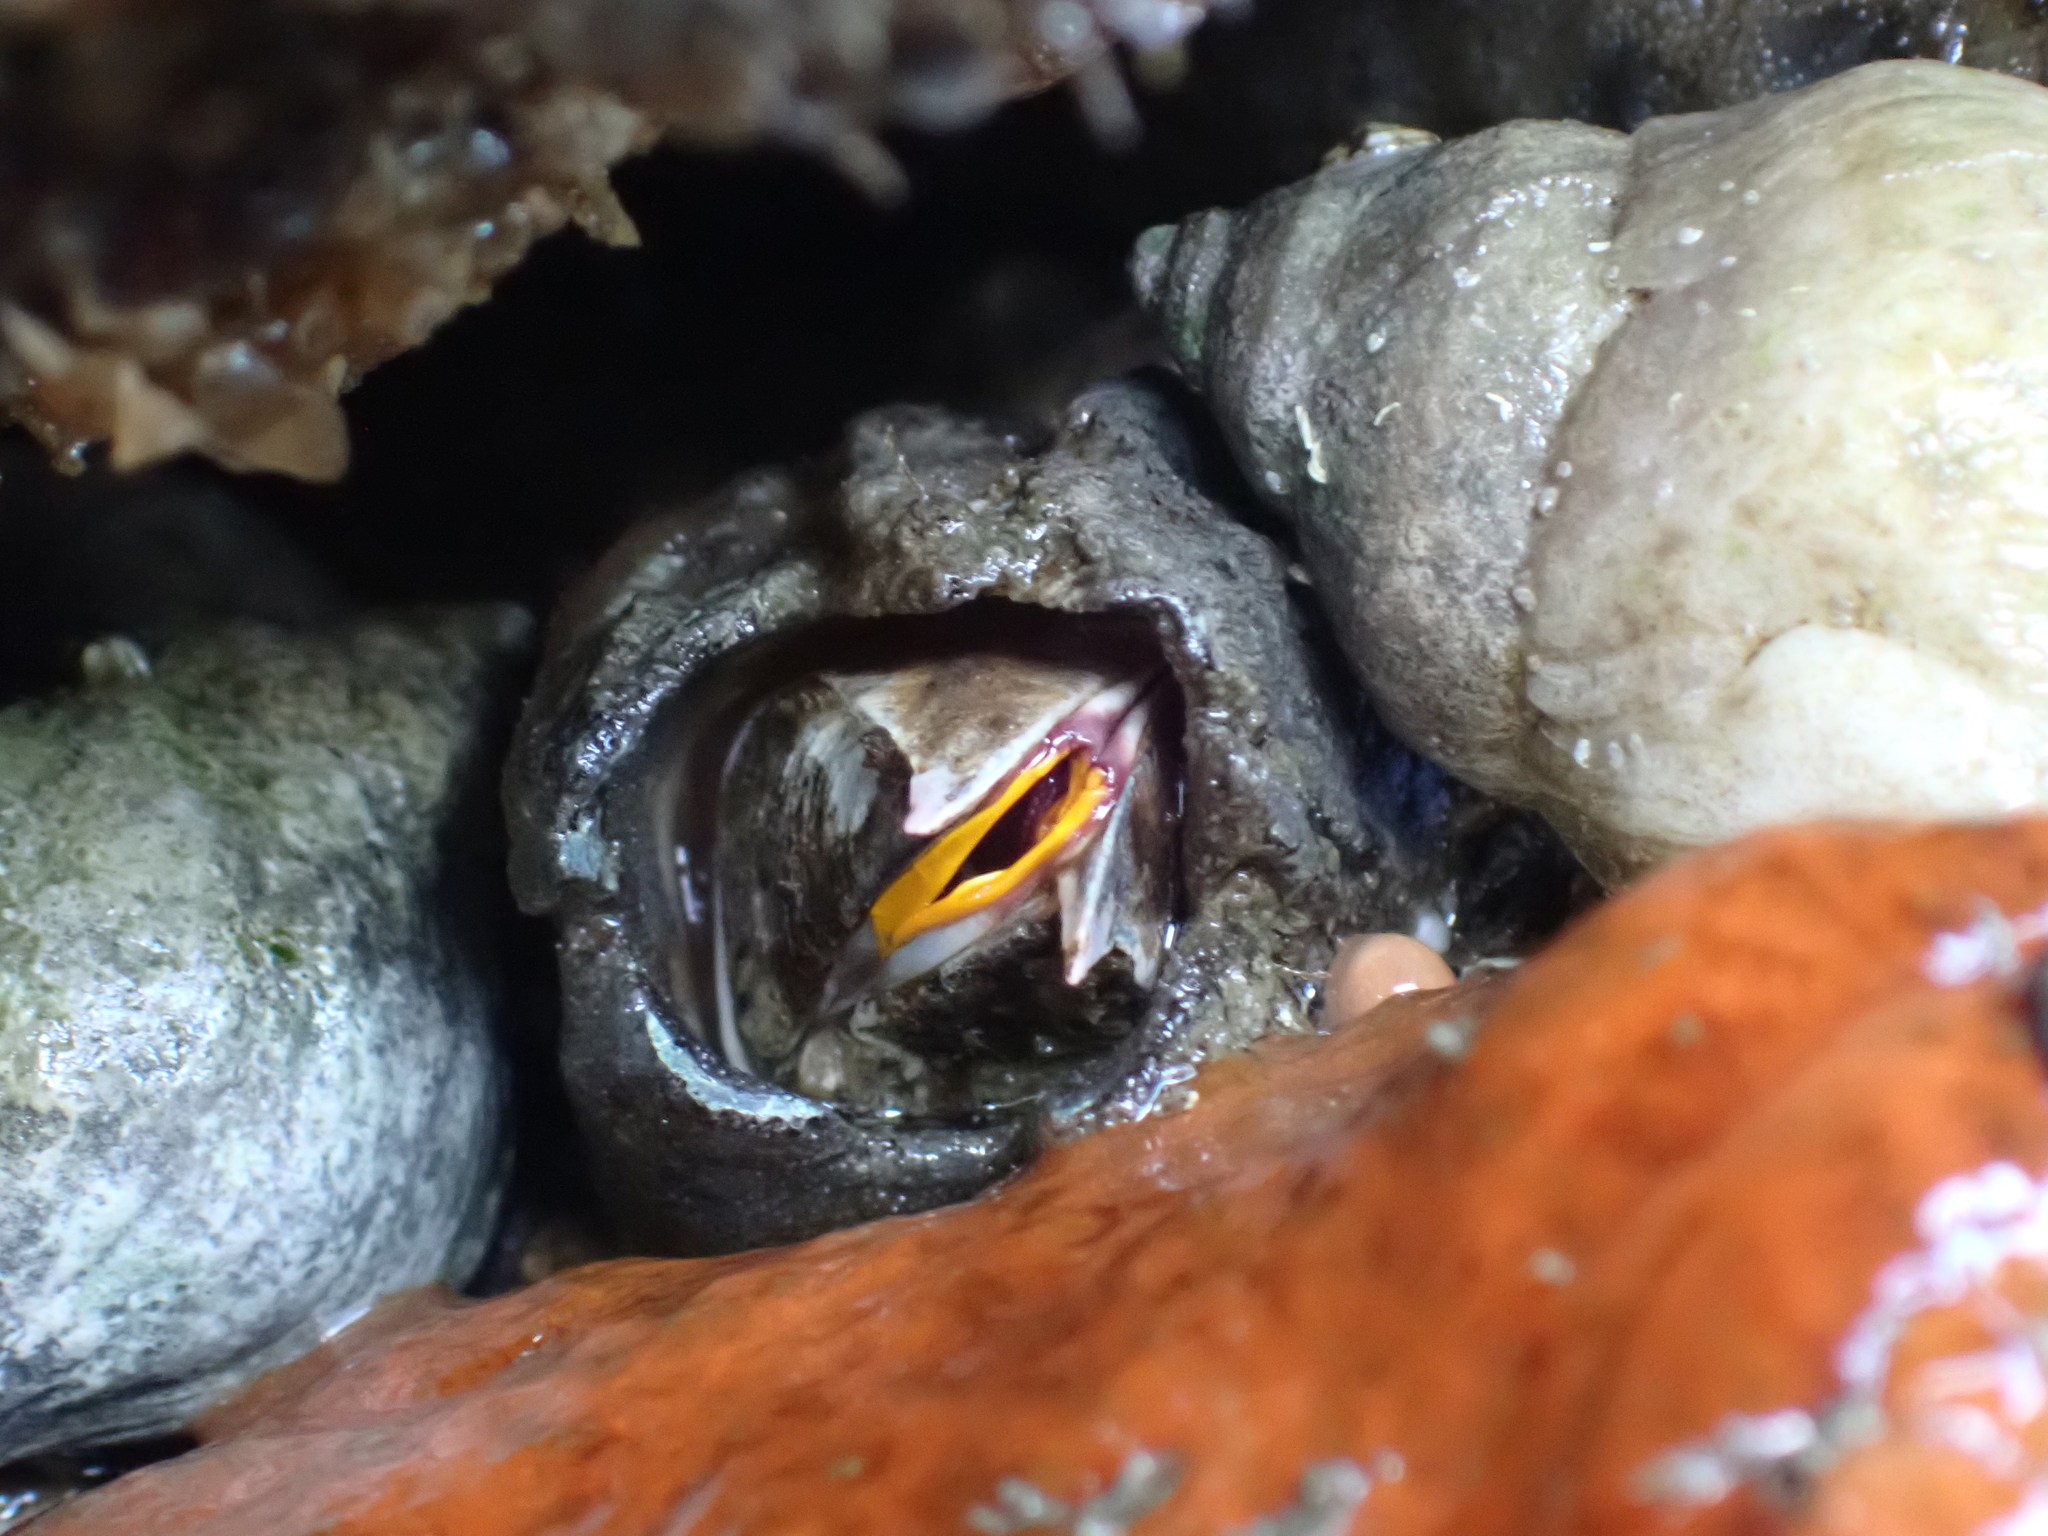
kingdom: Animalia
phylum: Arthropoda
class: Maxillopoda
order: Sessilia
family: Balanidae
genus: Balanus
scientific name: Balanus nubilus
